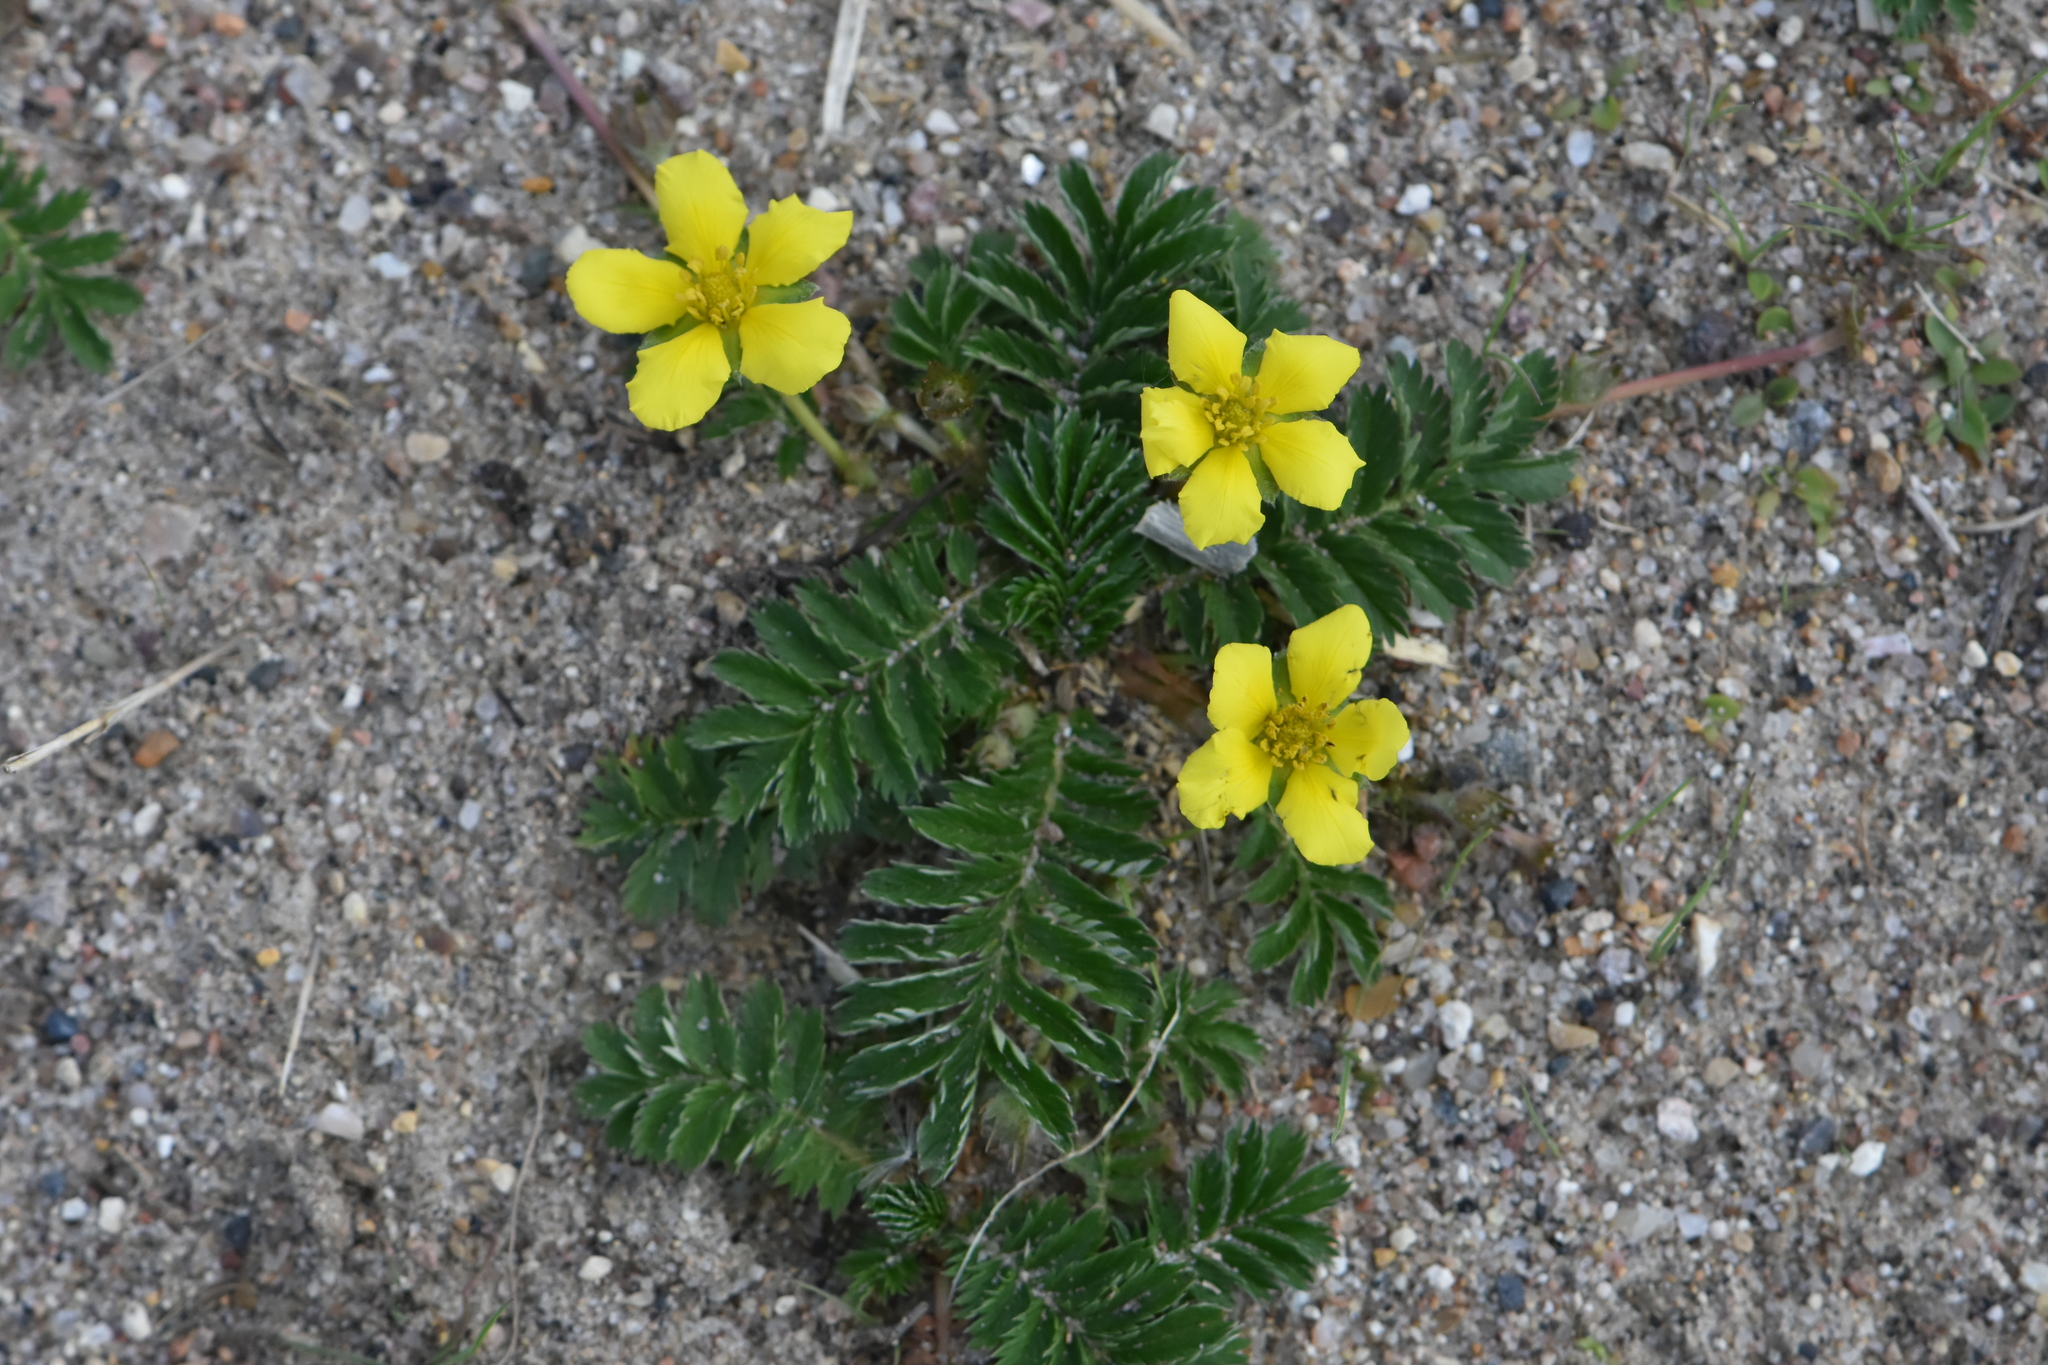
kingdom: Plantae
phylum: Tracheophyta
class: Magnoliopsida
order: Rosales
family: Rosaceae
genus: Argentina
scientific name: Argentina anserina
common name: Common silverweed
